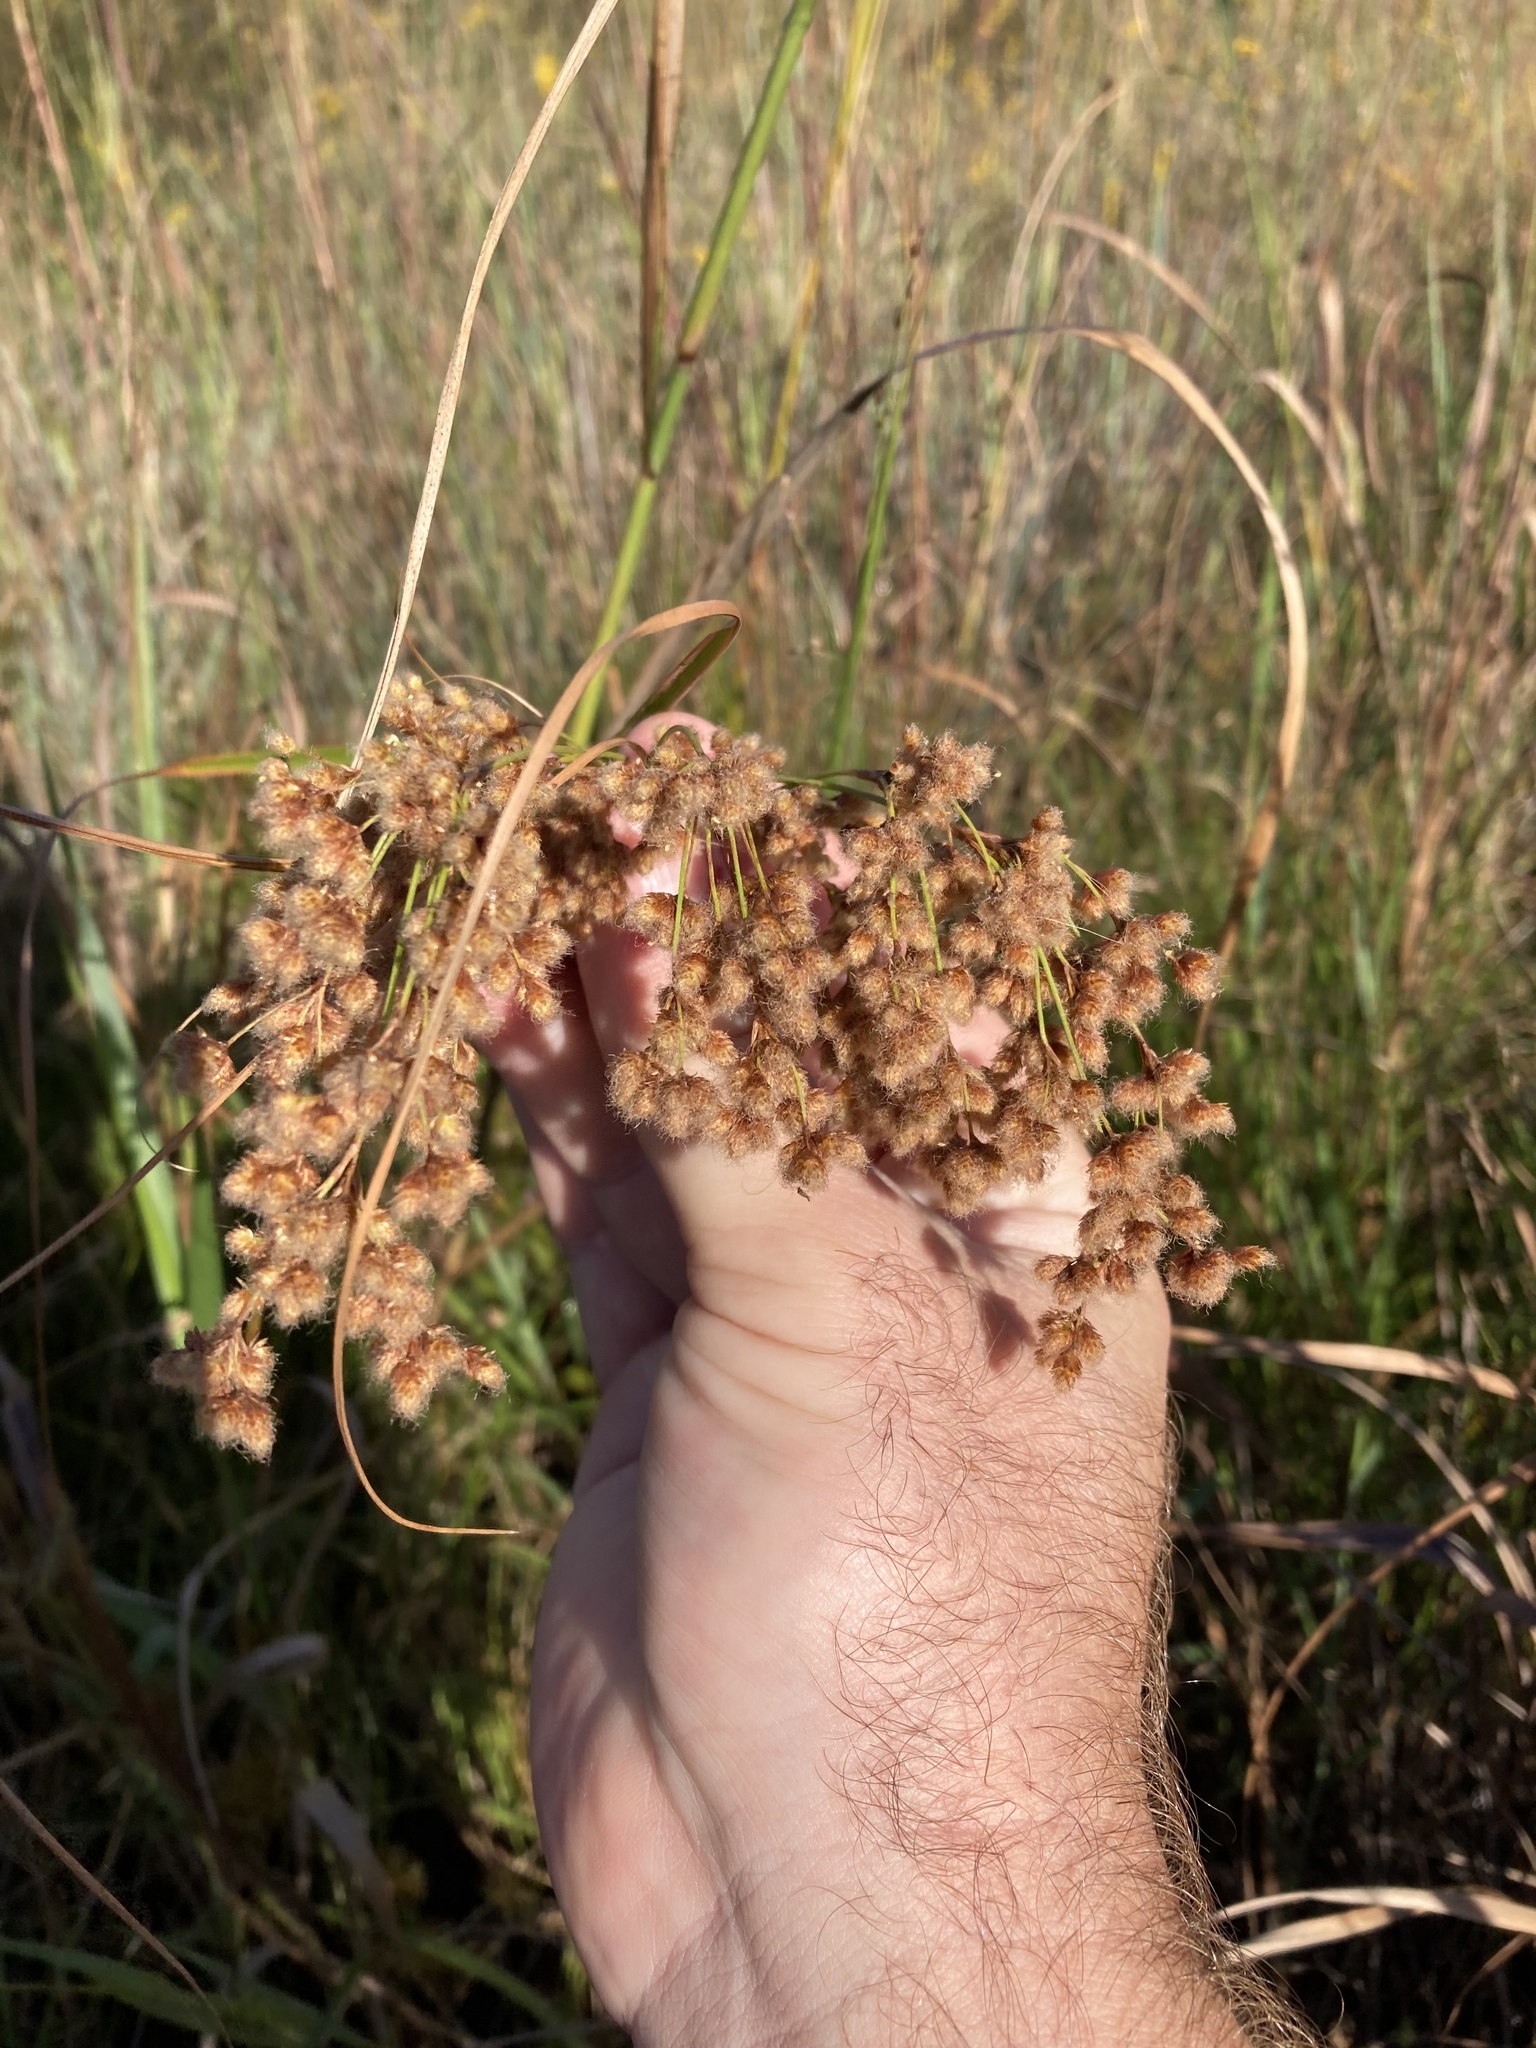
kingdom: Plantae
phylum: Tracheophyta
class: Liliopsida
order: Poales
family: Cyperaceae
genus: Scirpus
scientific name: Scirpus cyperinus
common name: Black-sheathed bulrush
